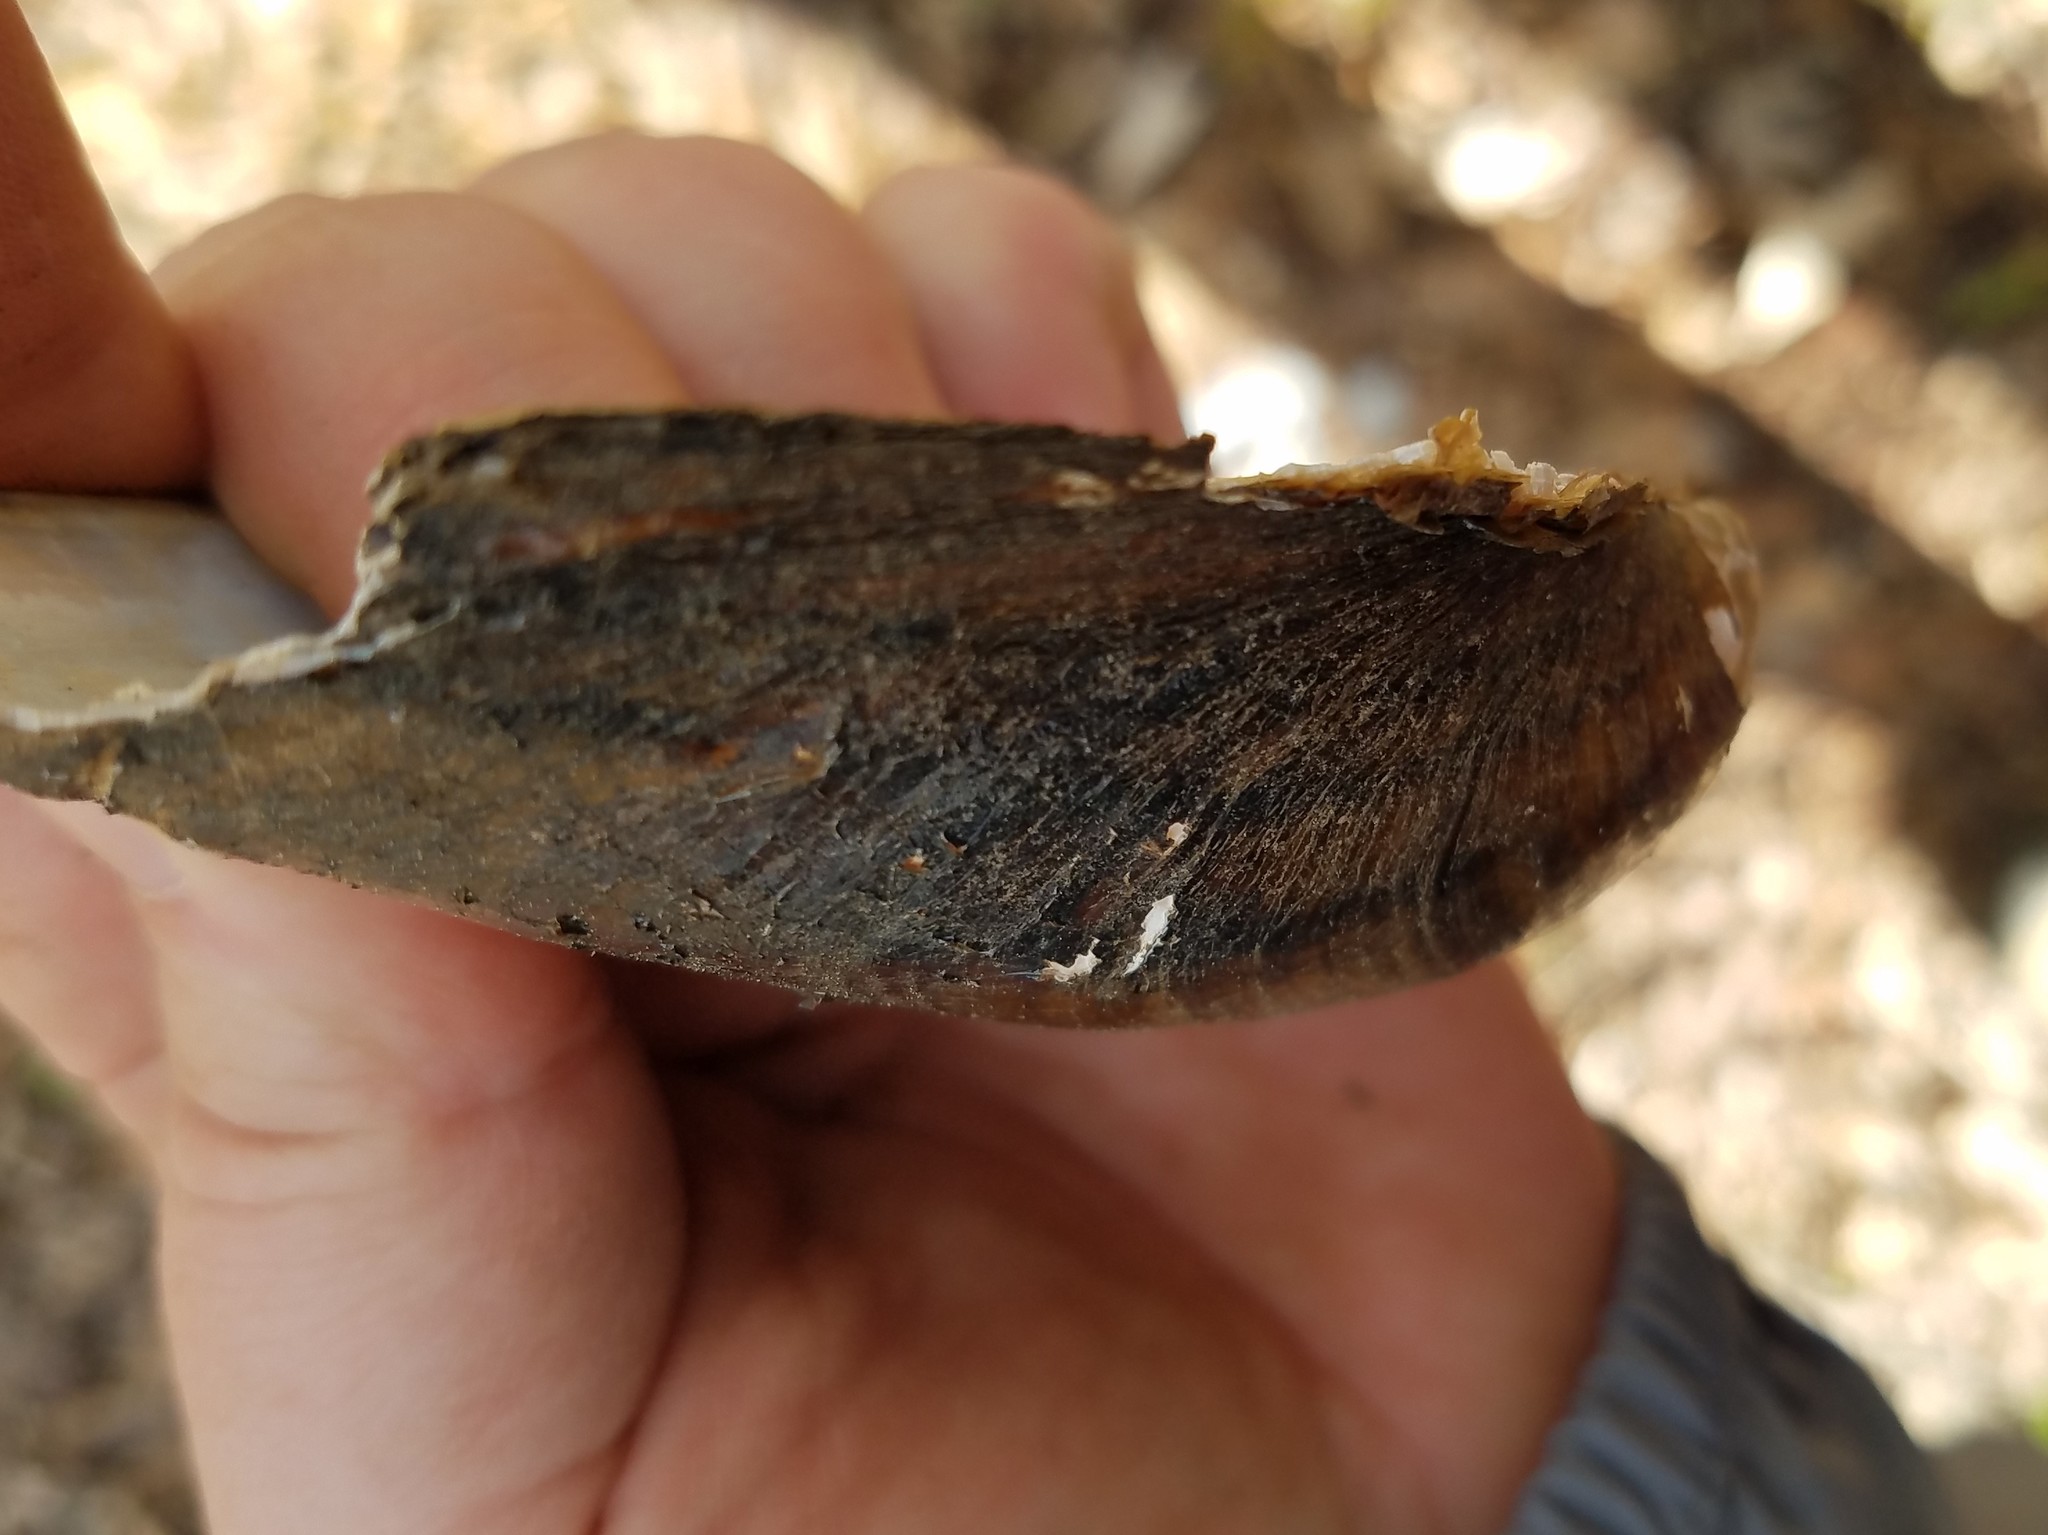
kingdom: Animalia
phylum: Mollusca
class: Bivalvia
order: Unionida
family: Unionidae
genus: Pyganodon
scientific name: Pyganodon gibbosa
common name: Inflated floater
